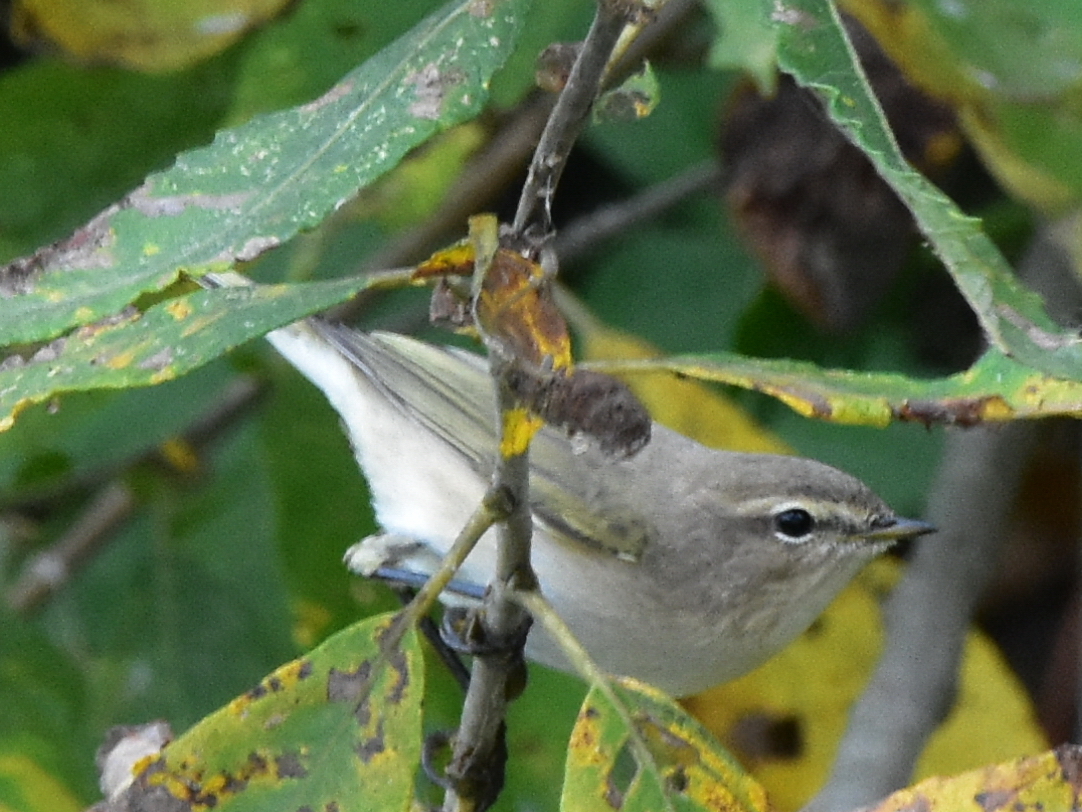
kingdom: Animalia
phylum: Chordata
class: Aves
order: Passeriformes
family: Phylloscopidae
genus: Phylloscopus
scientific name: Phylloscopus collybita
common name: Common chiffchaff
